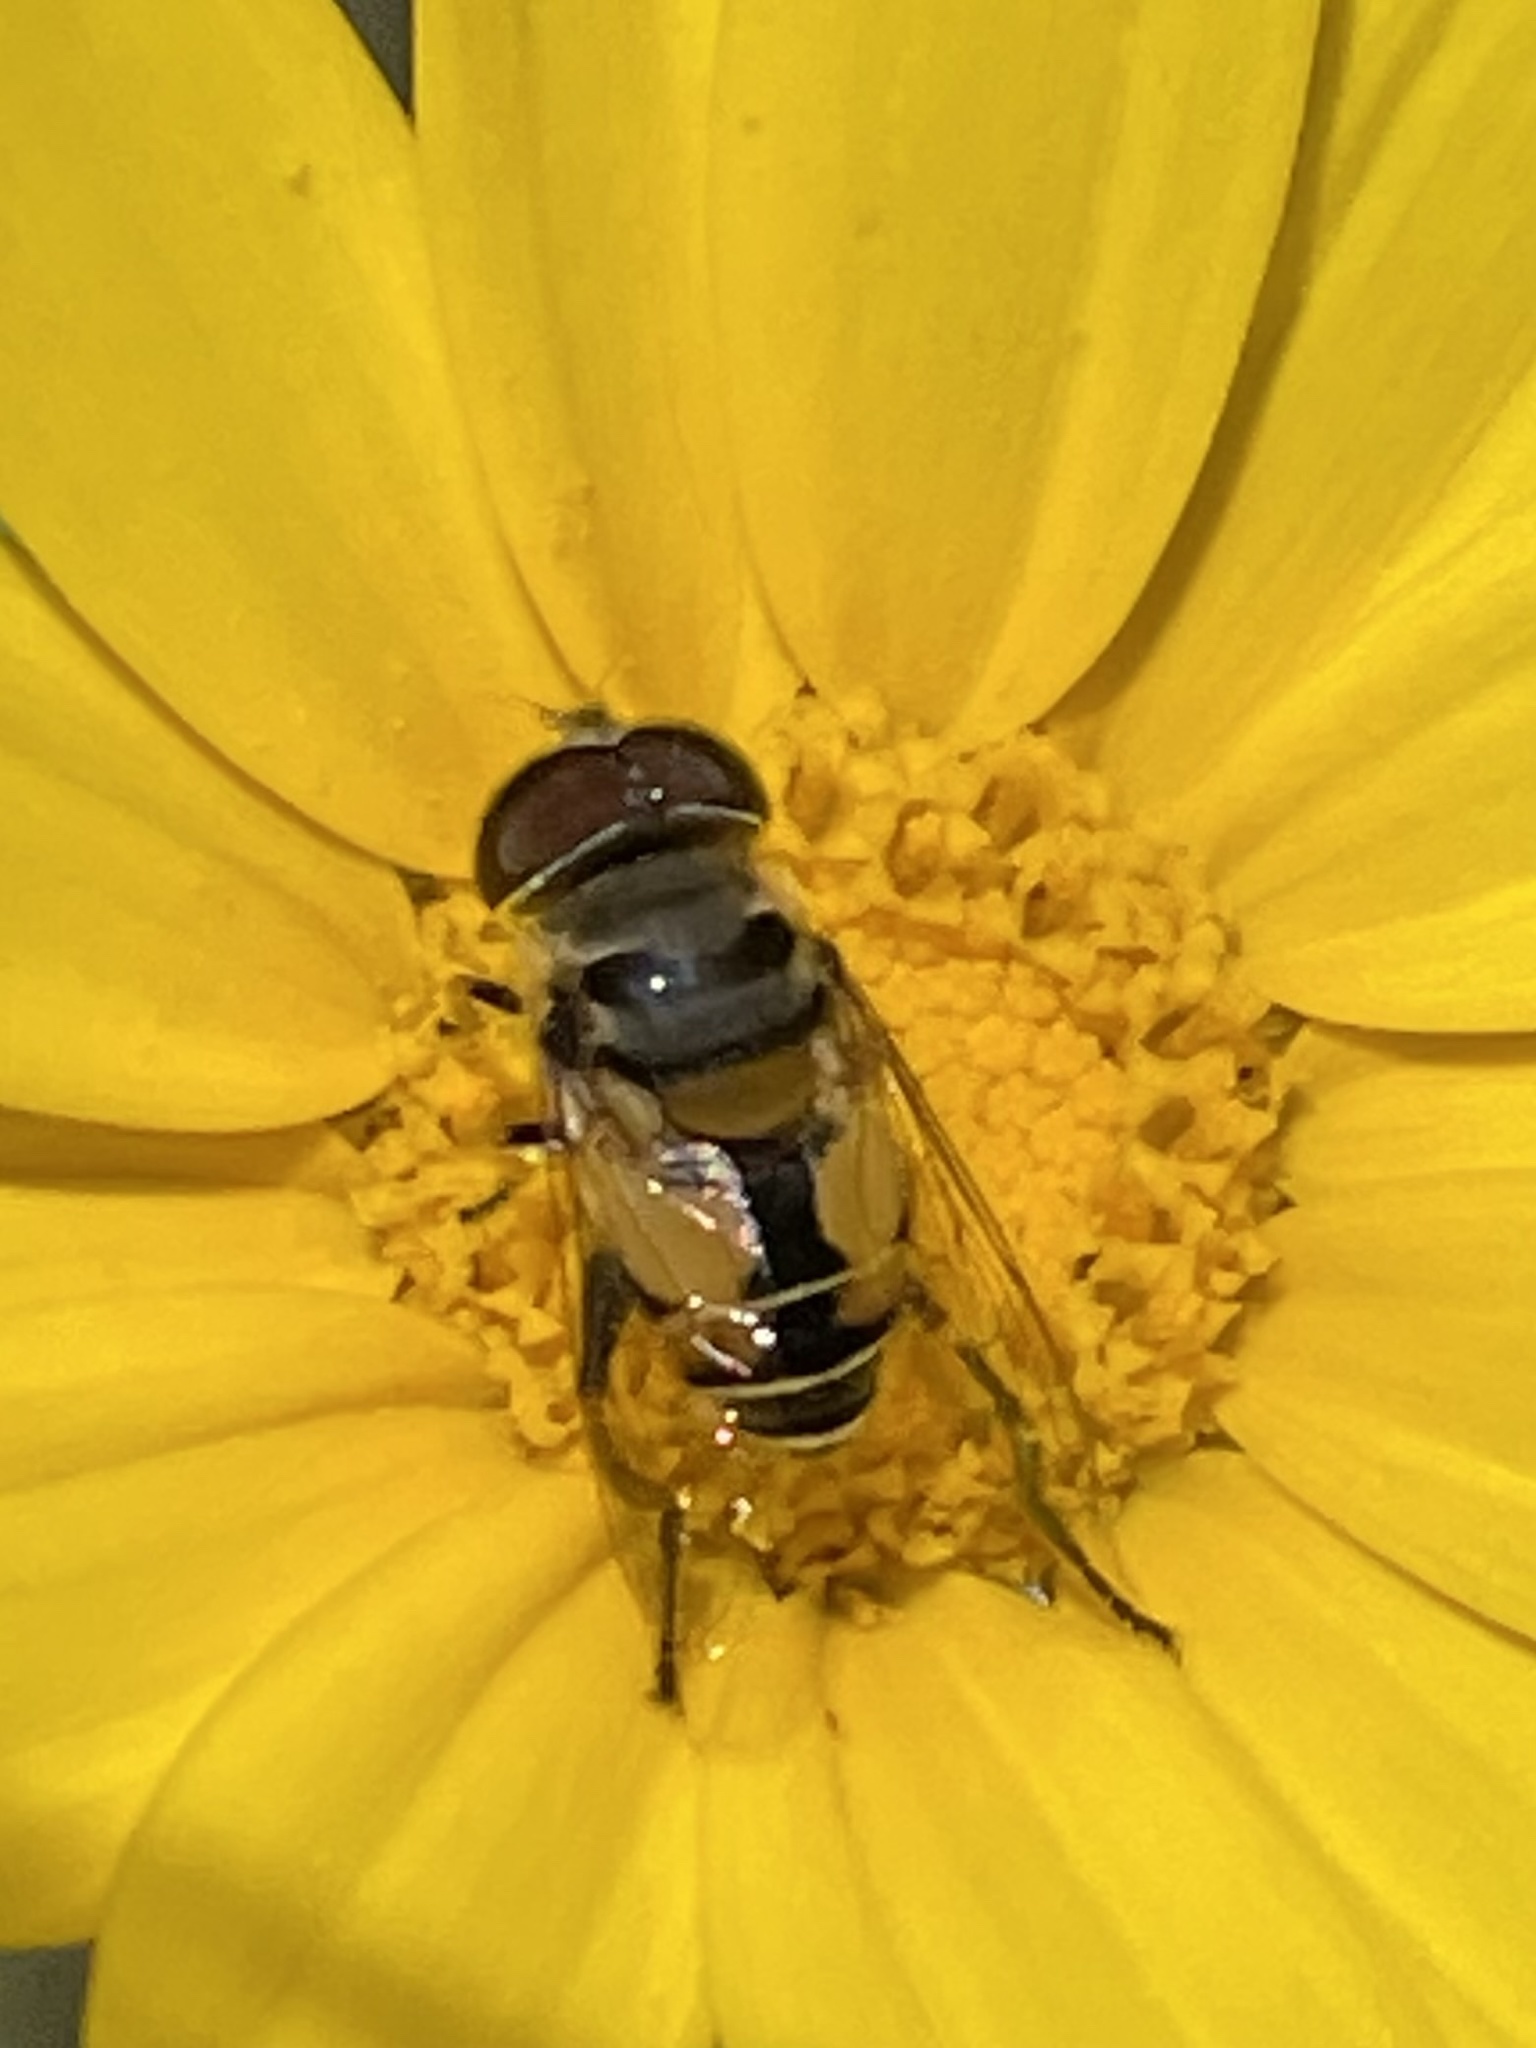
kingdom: Animalia
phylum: Arthropoda
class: Insecta
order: Diptera
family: Syrphidae
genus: Palpada
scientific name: Palpada alhambra
